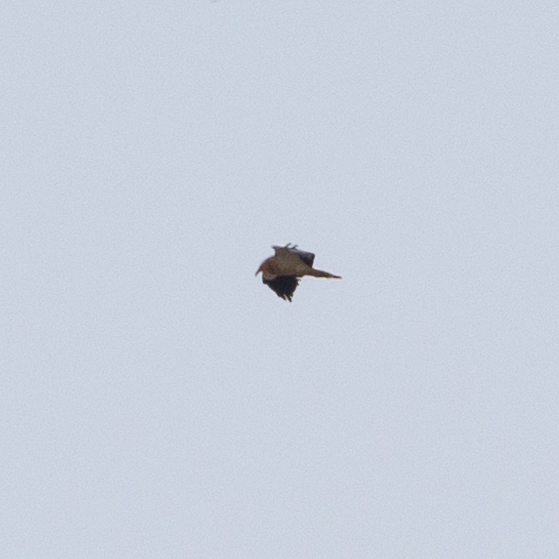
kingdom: Animalia
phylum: Chordata
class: Aves
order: Accipitriformes
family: Accipitridae
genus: Neophron
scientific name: Neophron percnopterus
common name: Egyptian vulture
